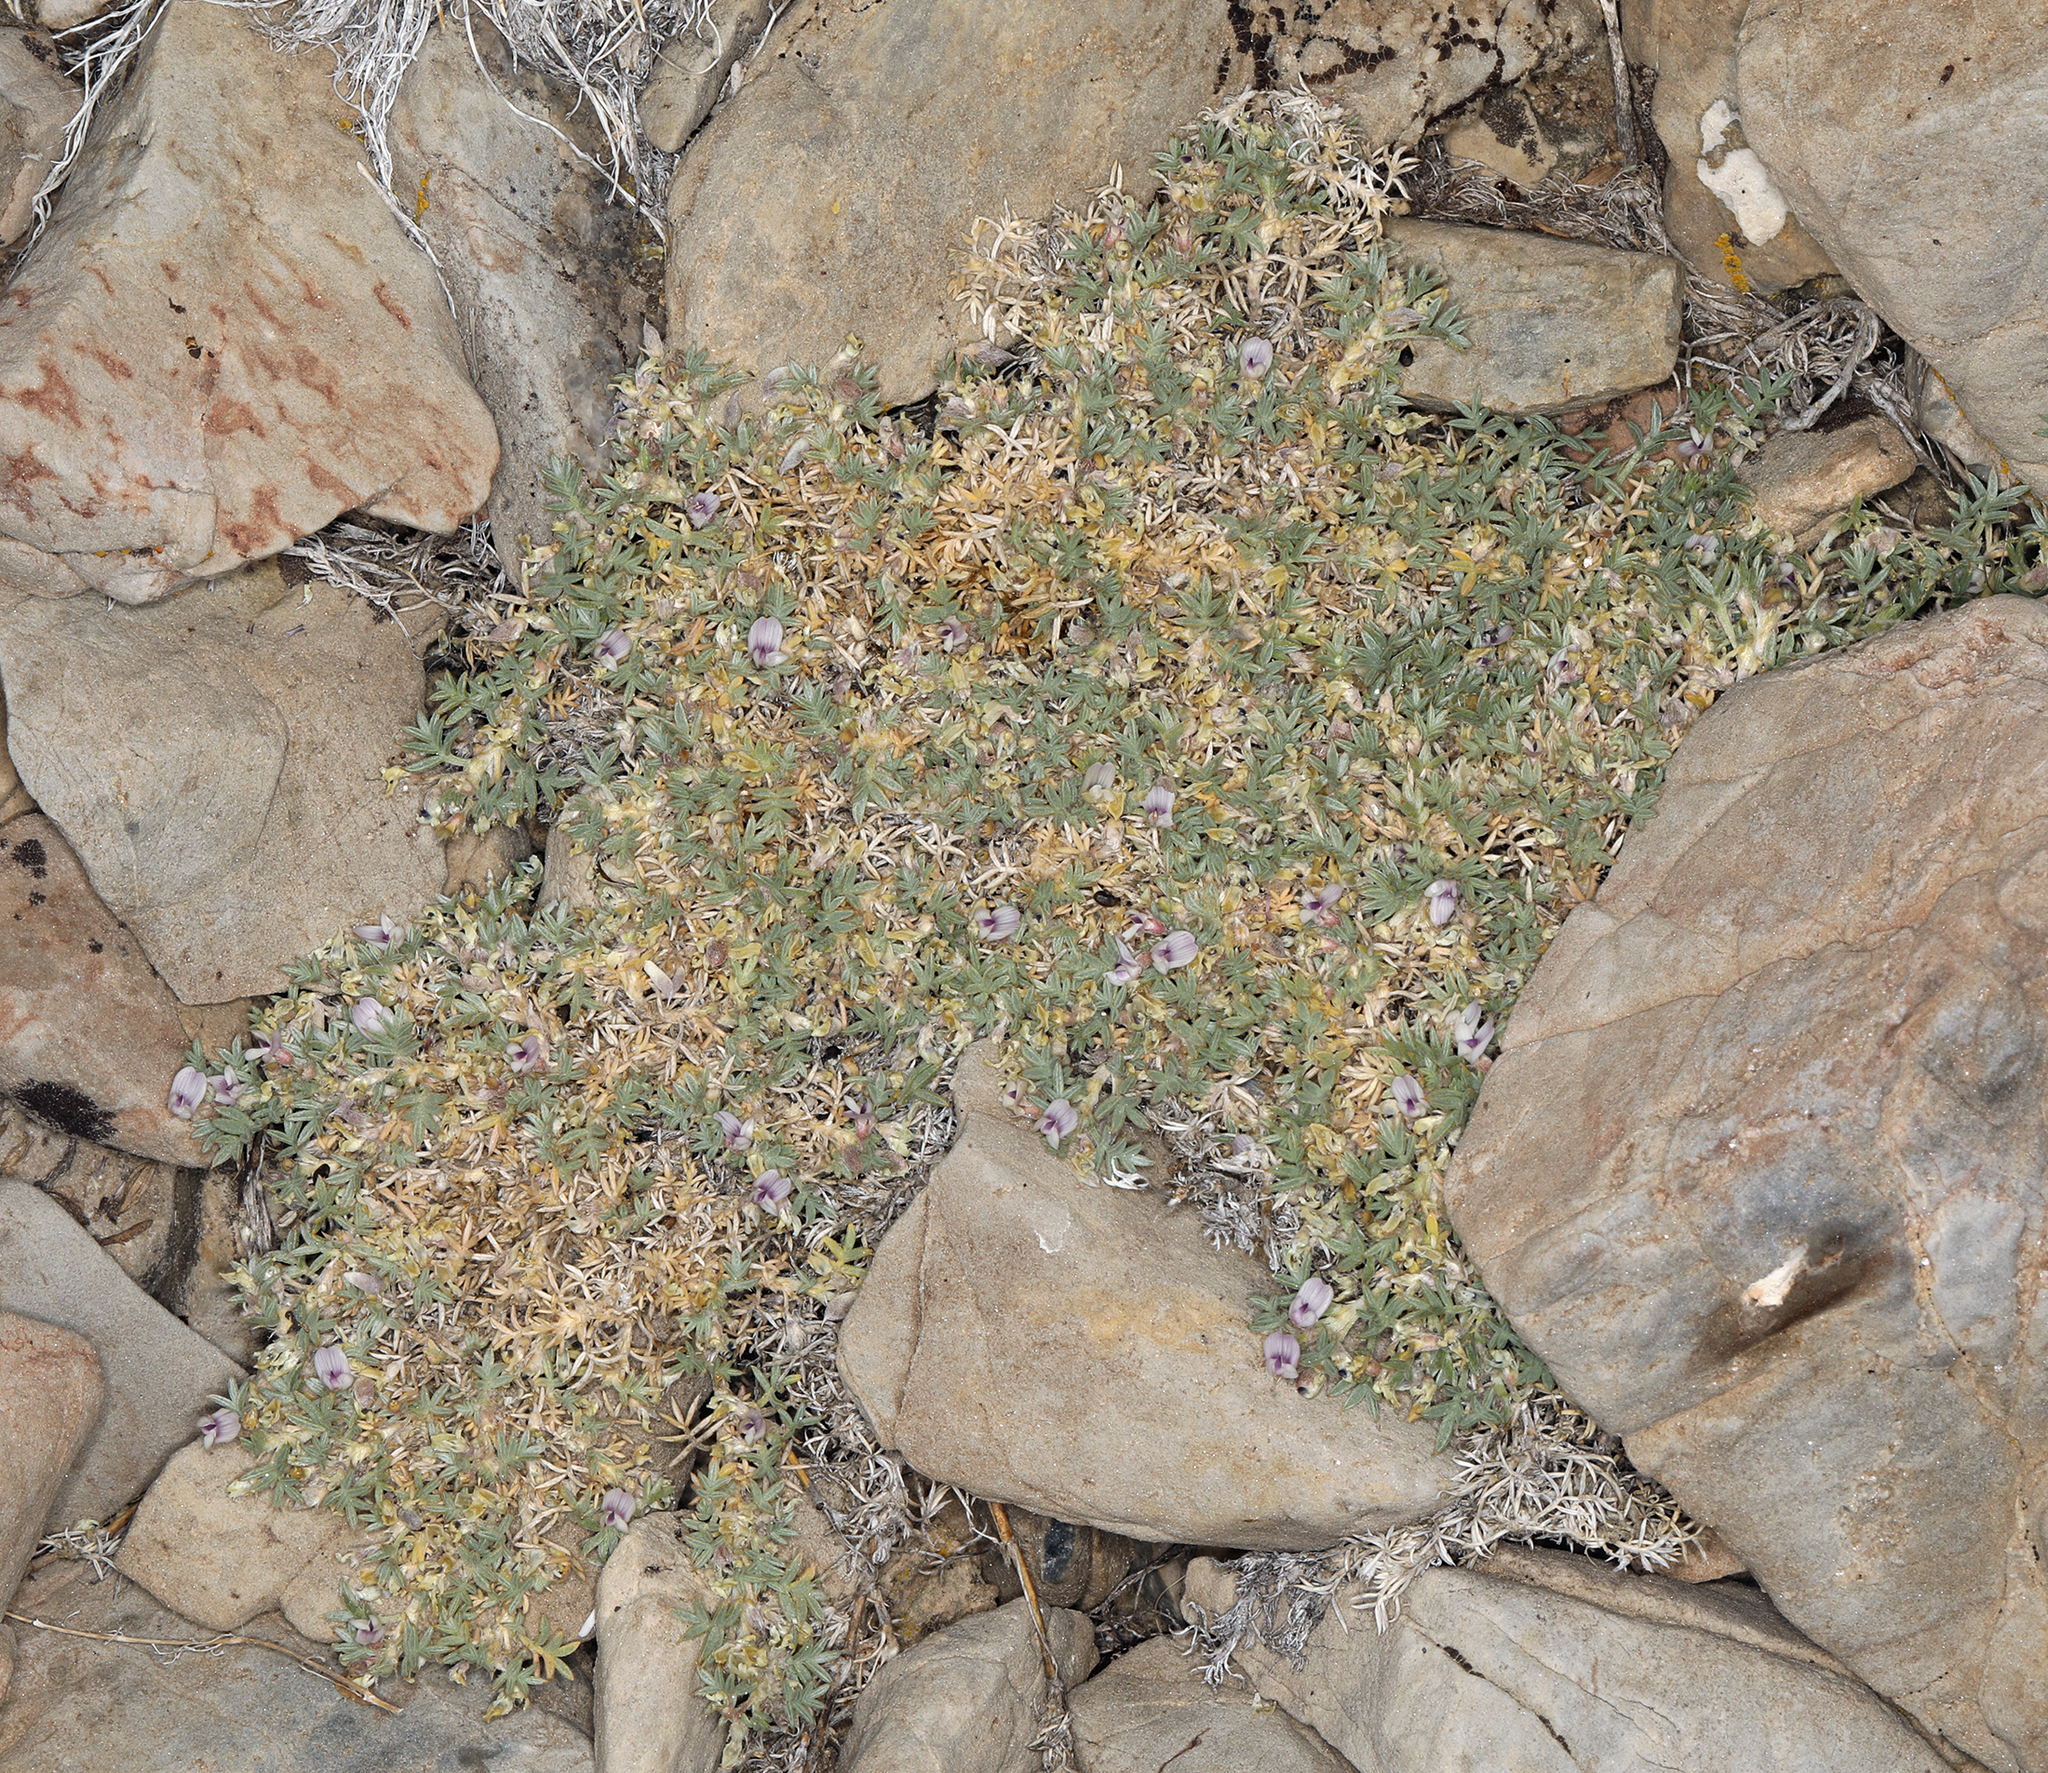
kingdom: Plantae
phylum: Tracheophyta
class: Magnoliopsida
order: Fabales
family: Fabaceae
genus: Astragalus
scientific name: Astragalus kentrophyta
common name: Prickly milk-vetch
